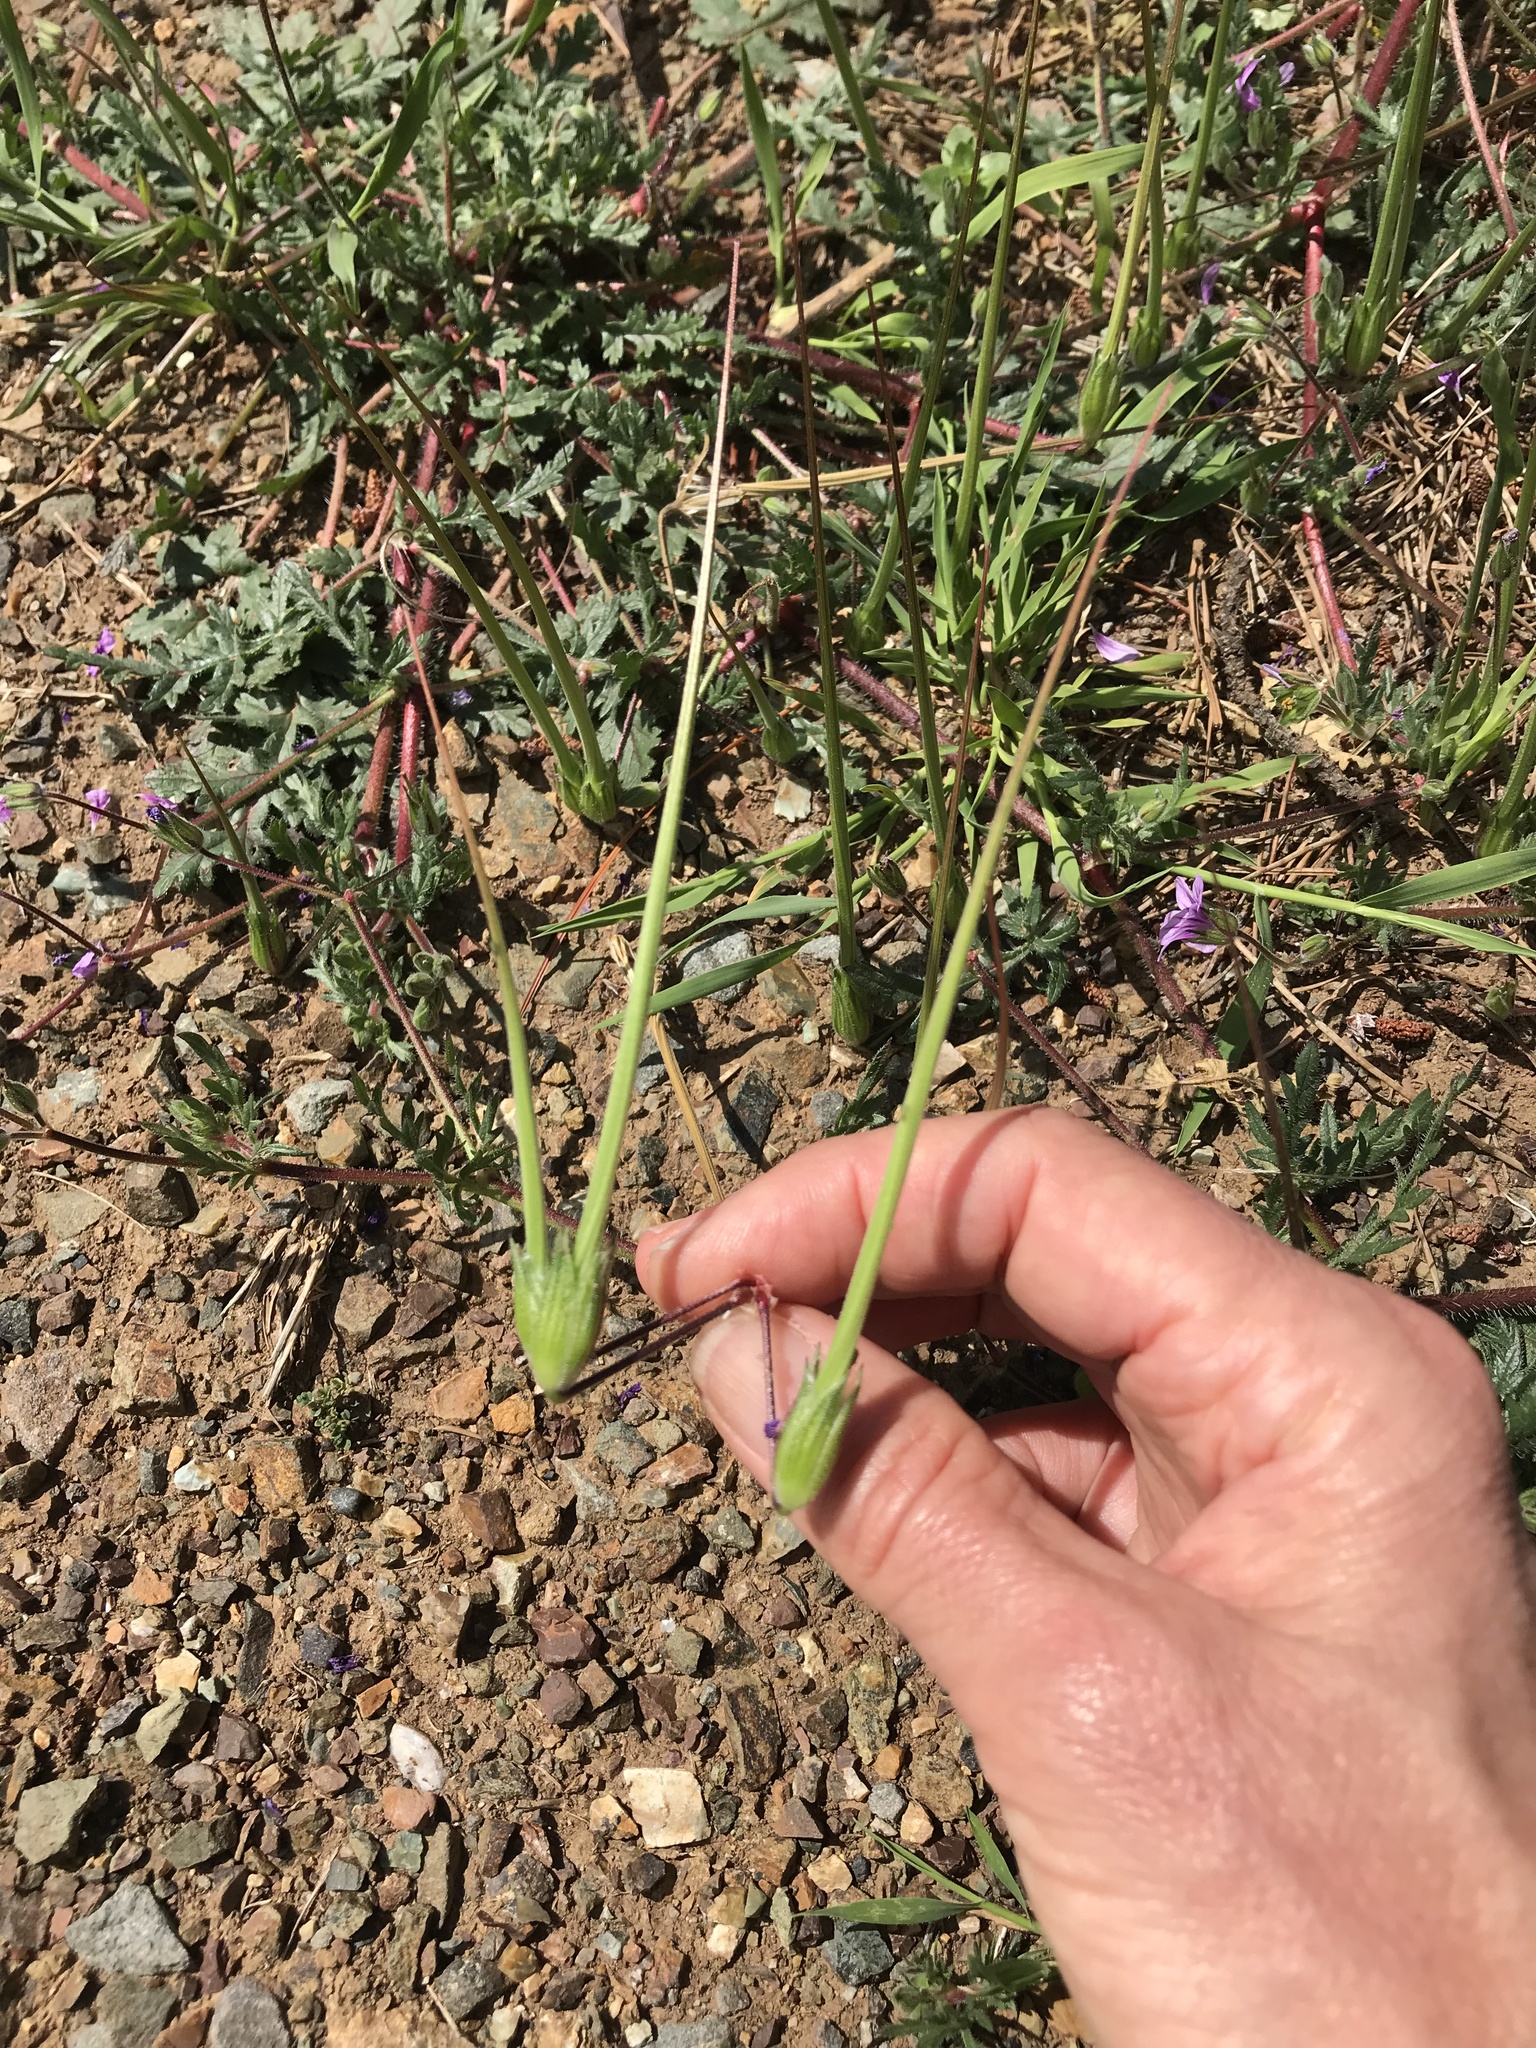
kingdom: Plantae
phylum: Tracheophyta
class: Magnoliopsida
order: Geraniales
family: Geraniaceae
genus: Erodium
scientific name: Erodium botrys
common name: Mediterranean stork's-bill
